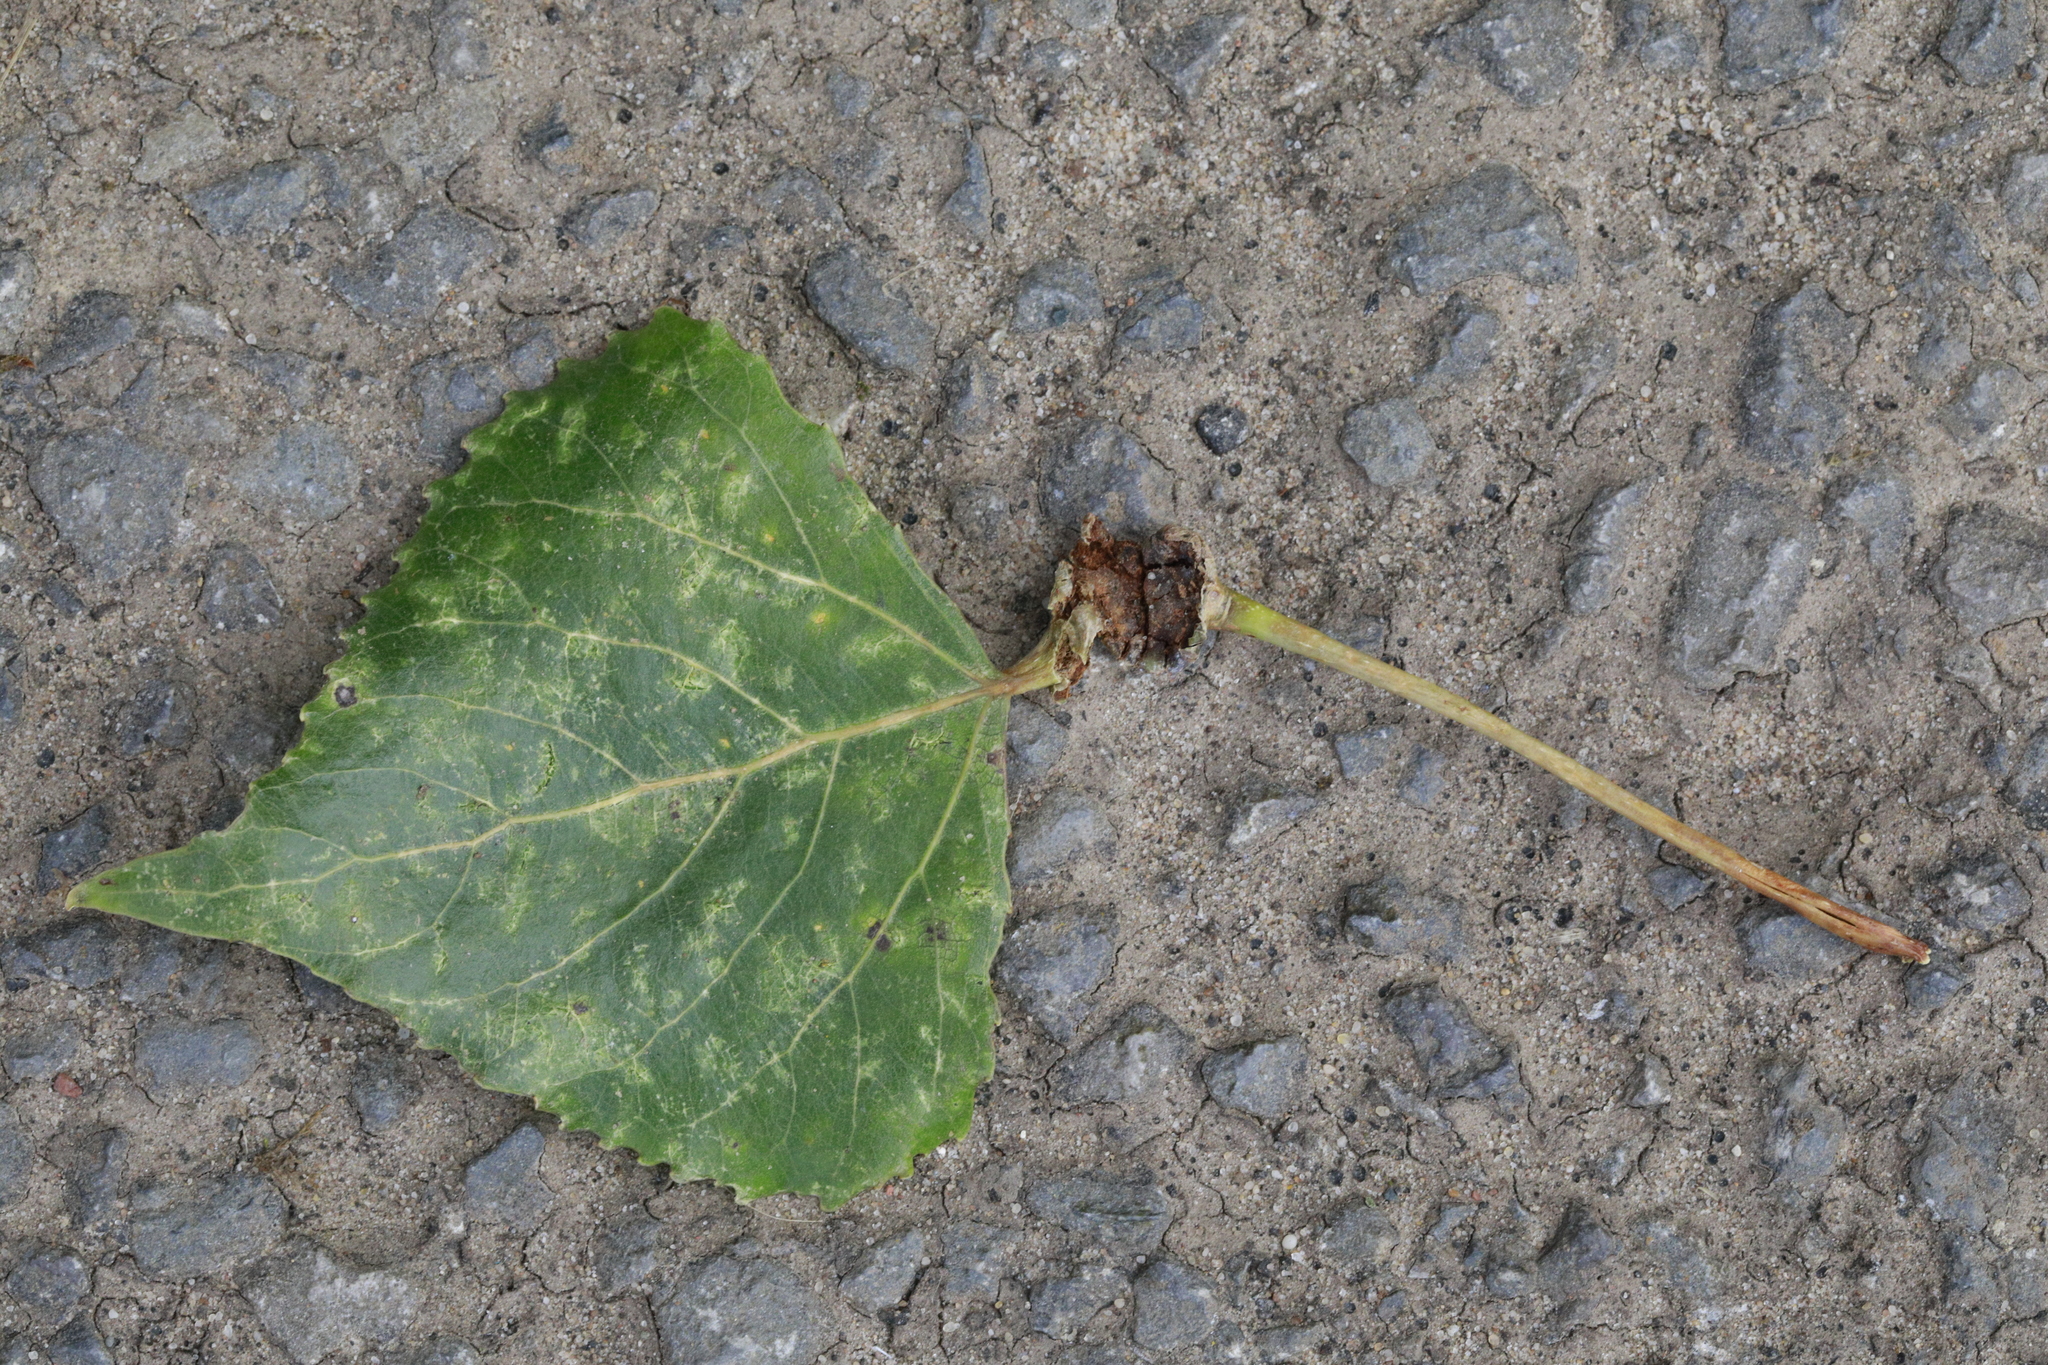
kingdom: Plantae
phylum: Tracheophyta
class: Magnoliopsida
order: Malpighiales
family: Salicaceae
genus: Populus
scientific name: Populus nigra
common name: Black poplar
